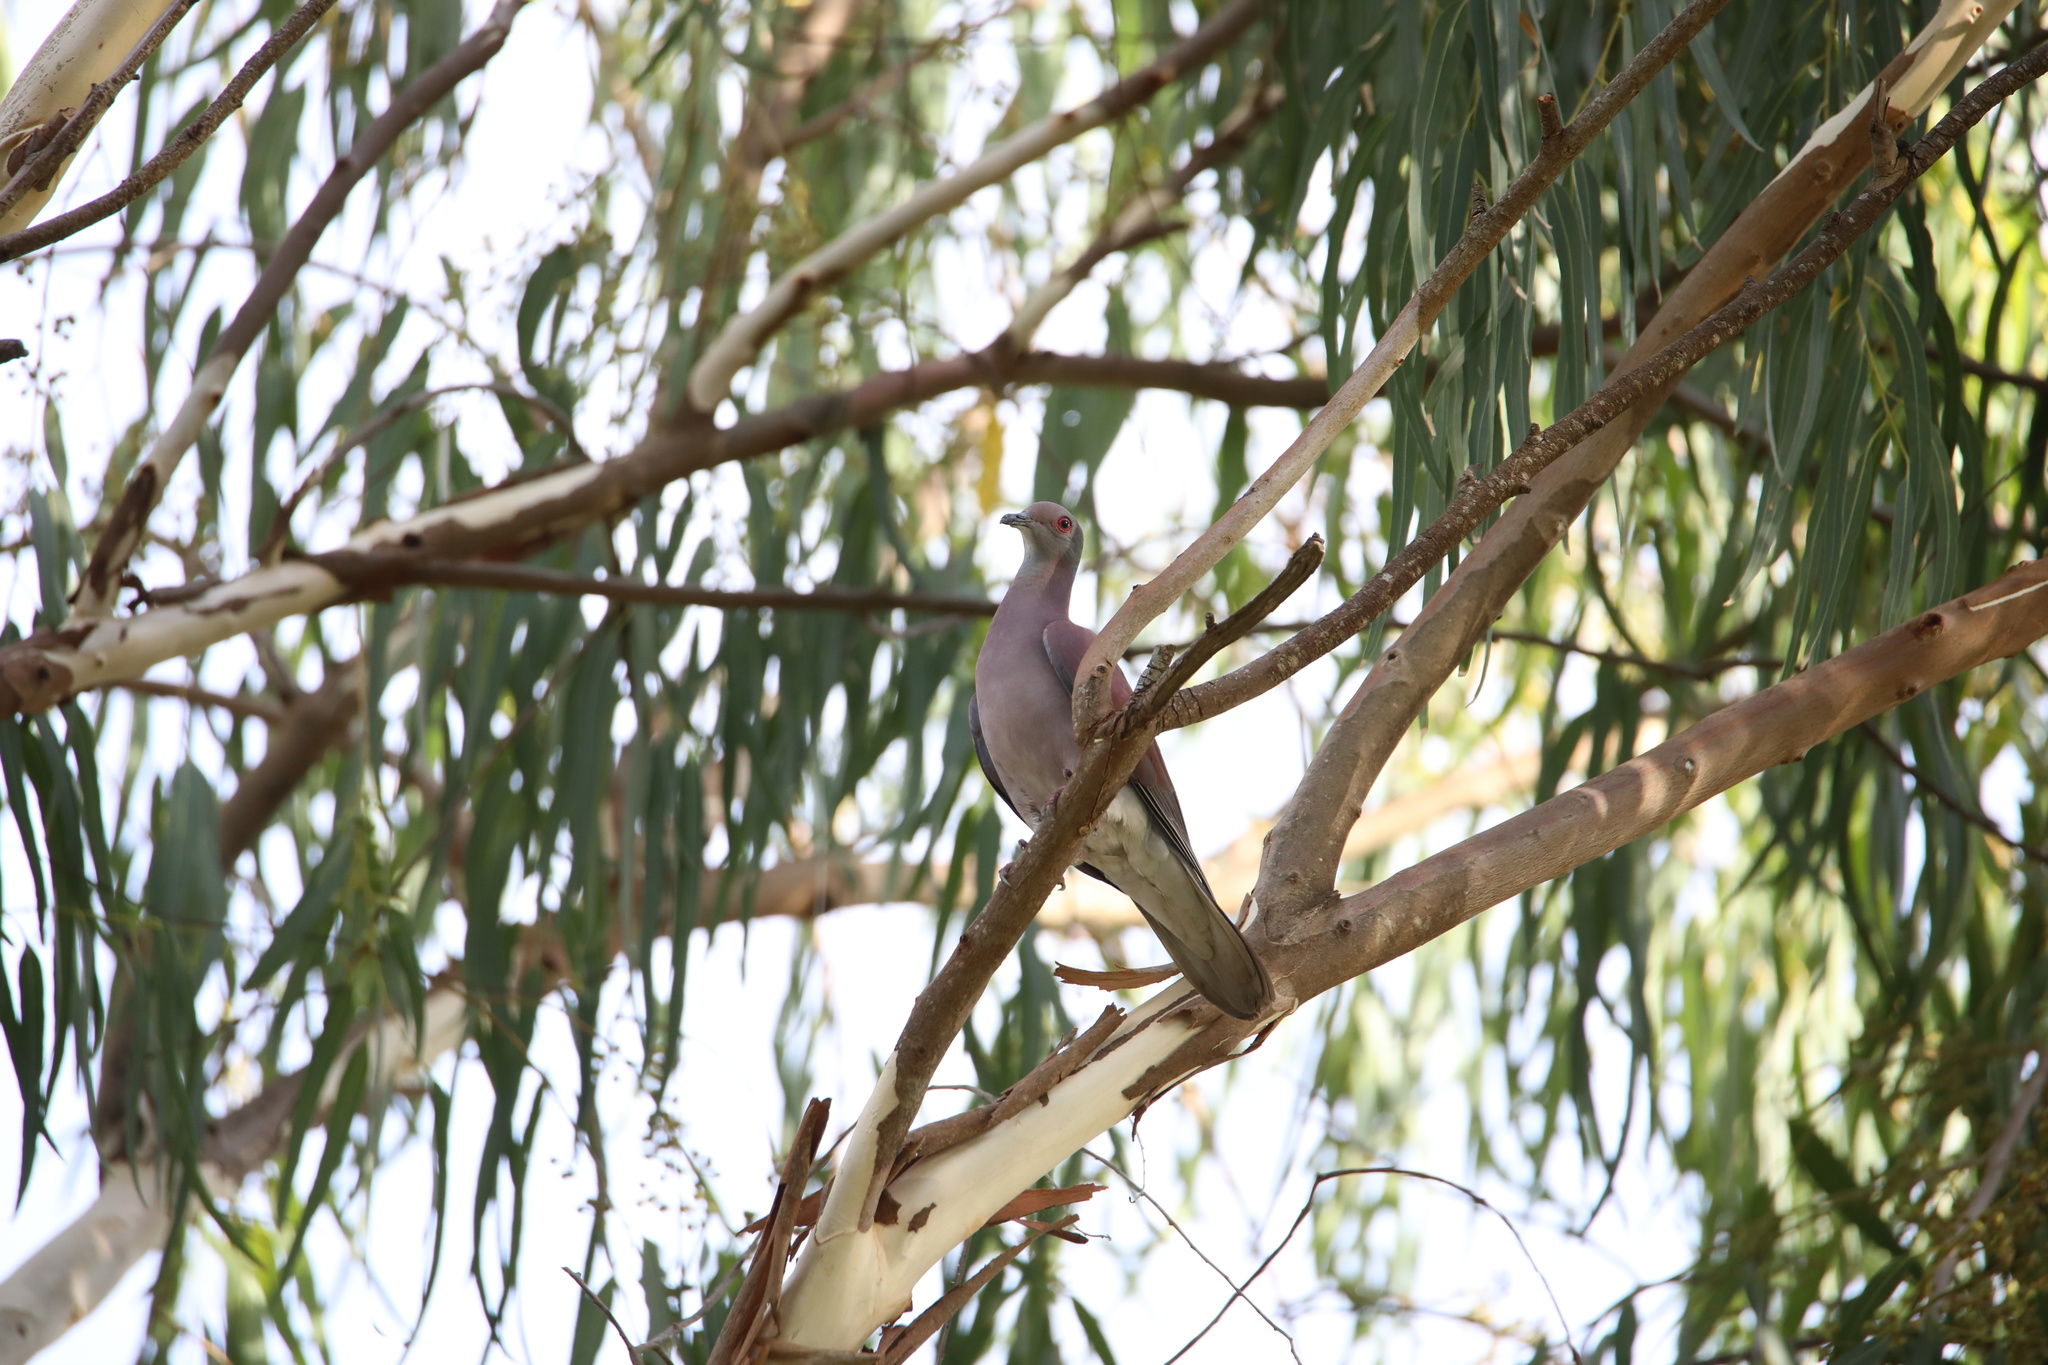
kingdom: Animalia
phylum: Chordata
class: Aves
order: Columbiformes
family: Columbidae
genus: Patagioenas
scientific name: Patagioenas cayennensis
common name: Pale-vented pigeon
